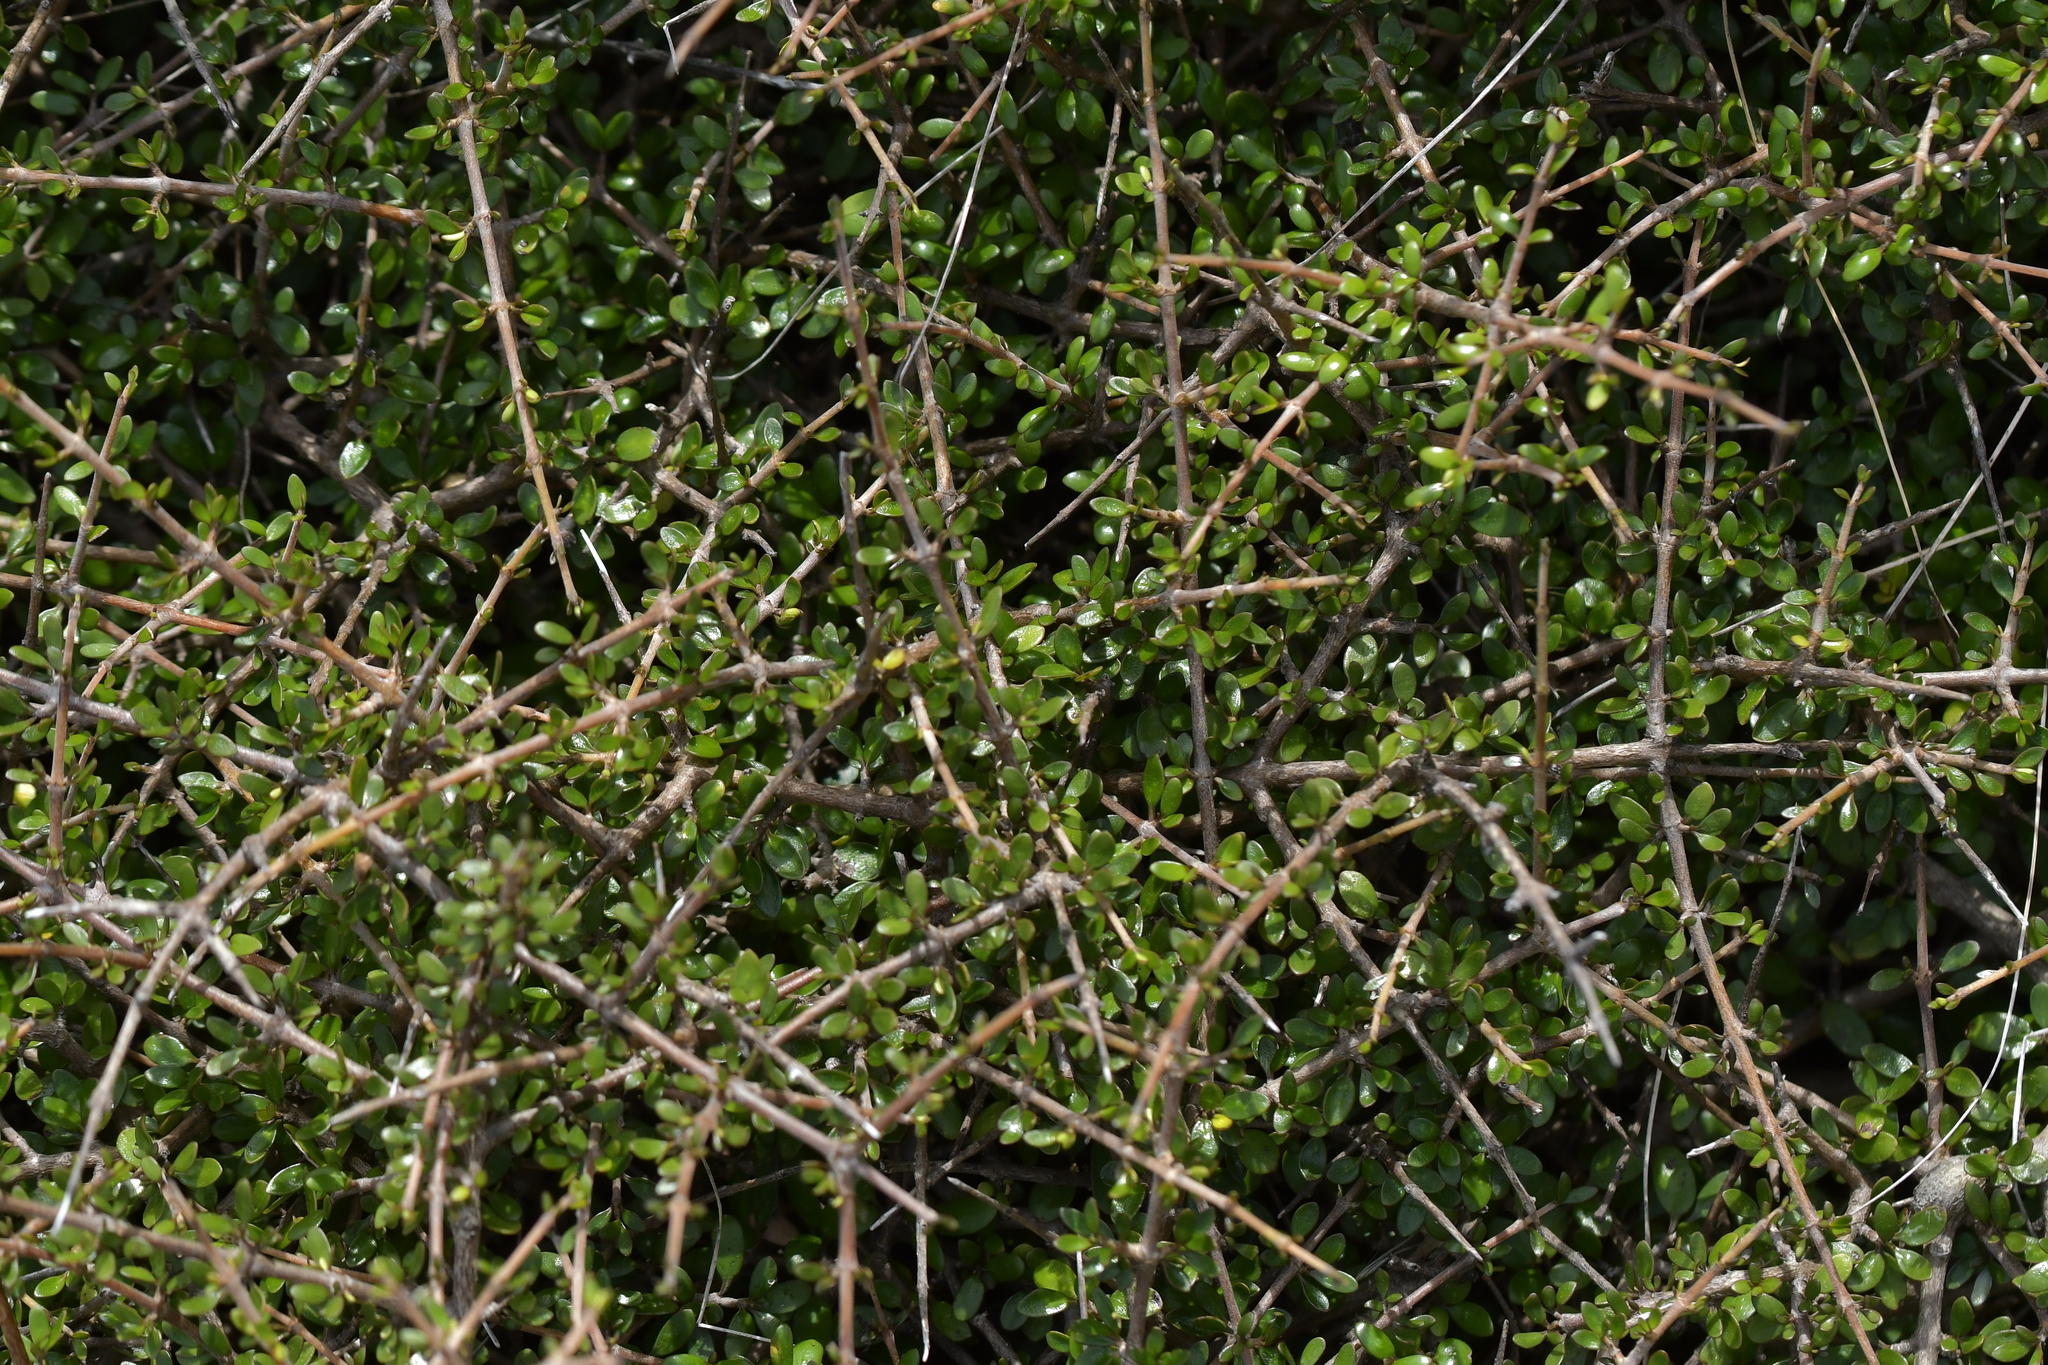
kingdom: Plantae
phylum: Tracheophyta
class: Magnoliopsida
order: Gentianales
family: Rubiaceae
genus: Coprosma
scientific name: Coprosma propinqua
